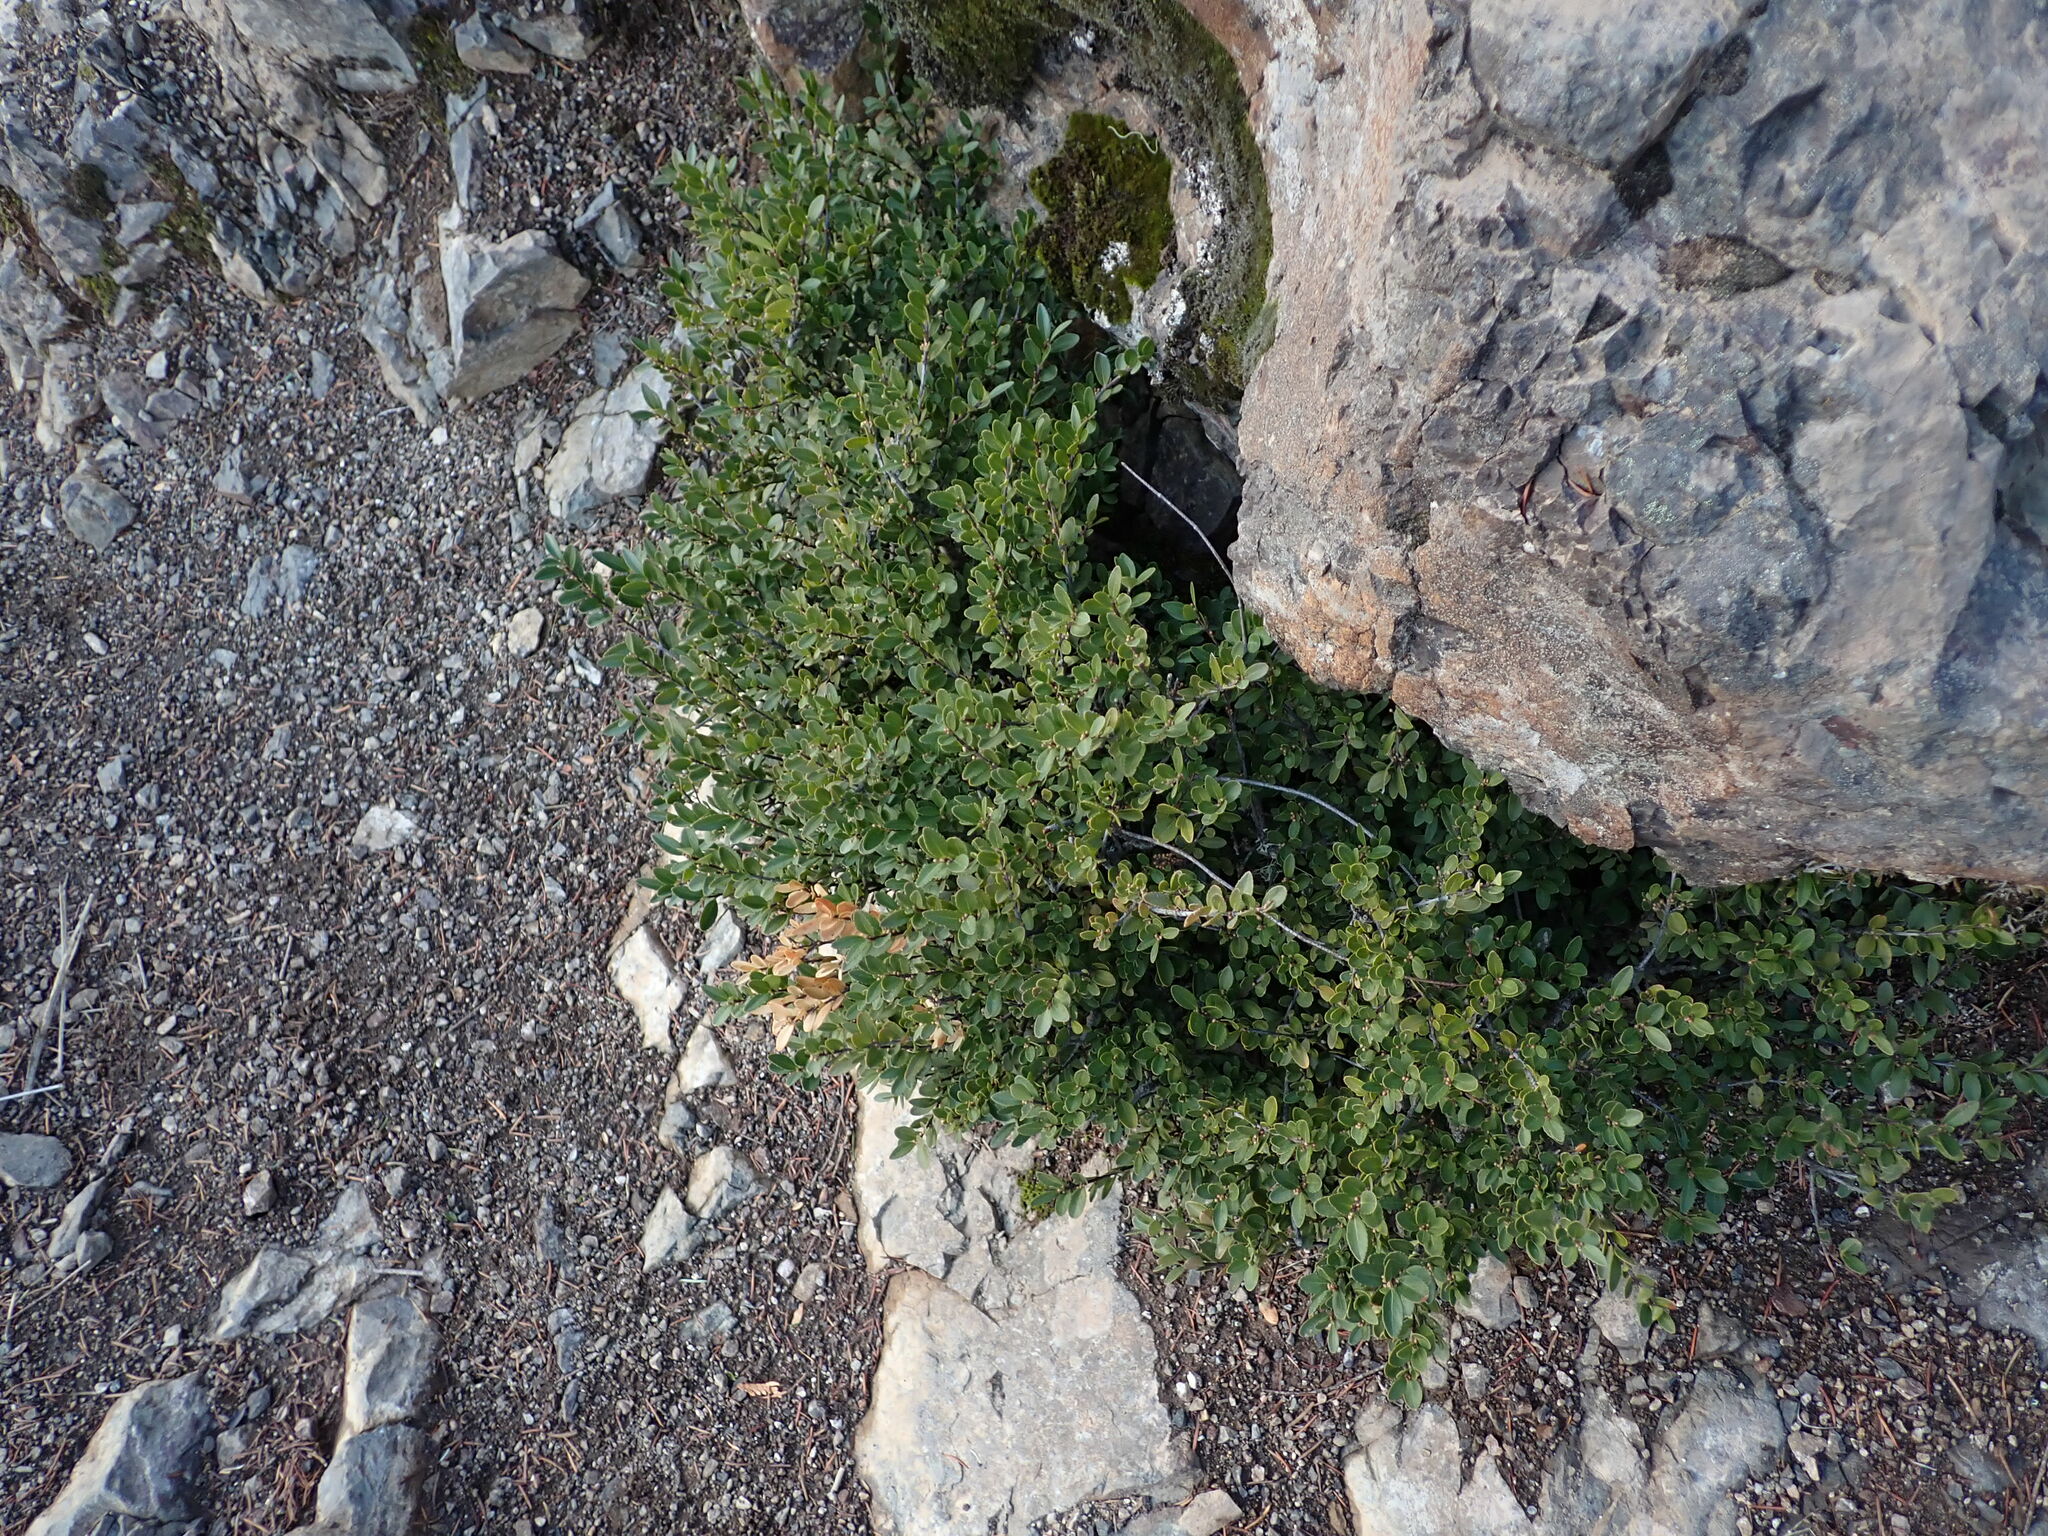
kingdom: Plantae
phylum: Tracheophyta
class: Magnoliopsida
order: Celastrales
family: Celastraceae
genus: Paxistima
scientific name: Paxistima myrsinites
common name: Mountain-lover
